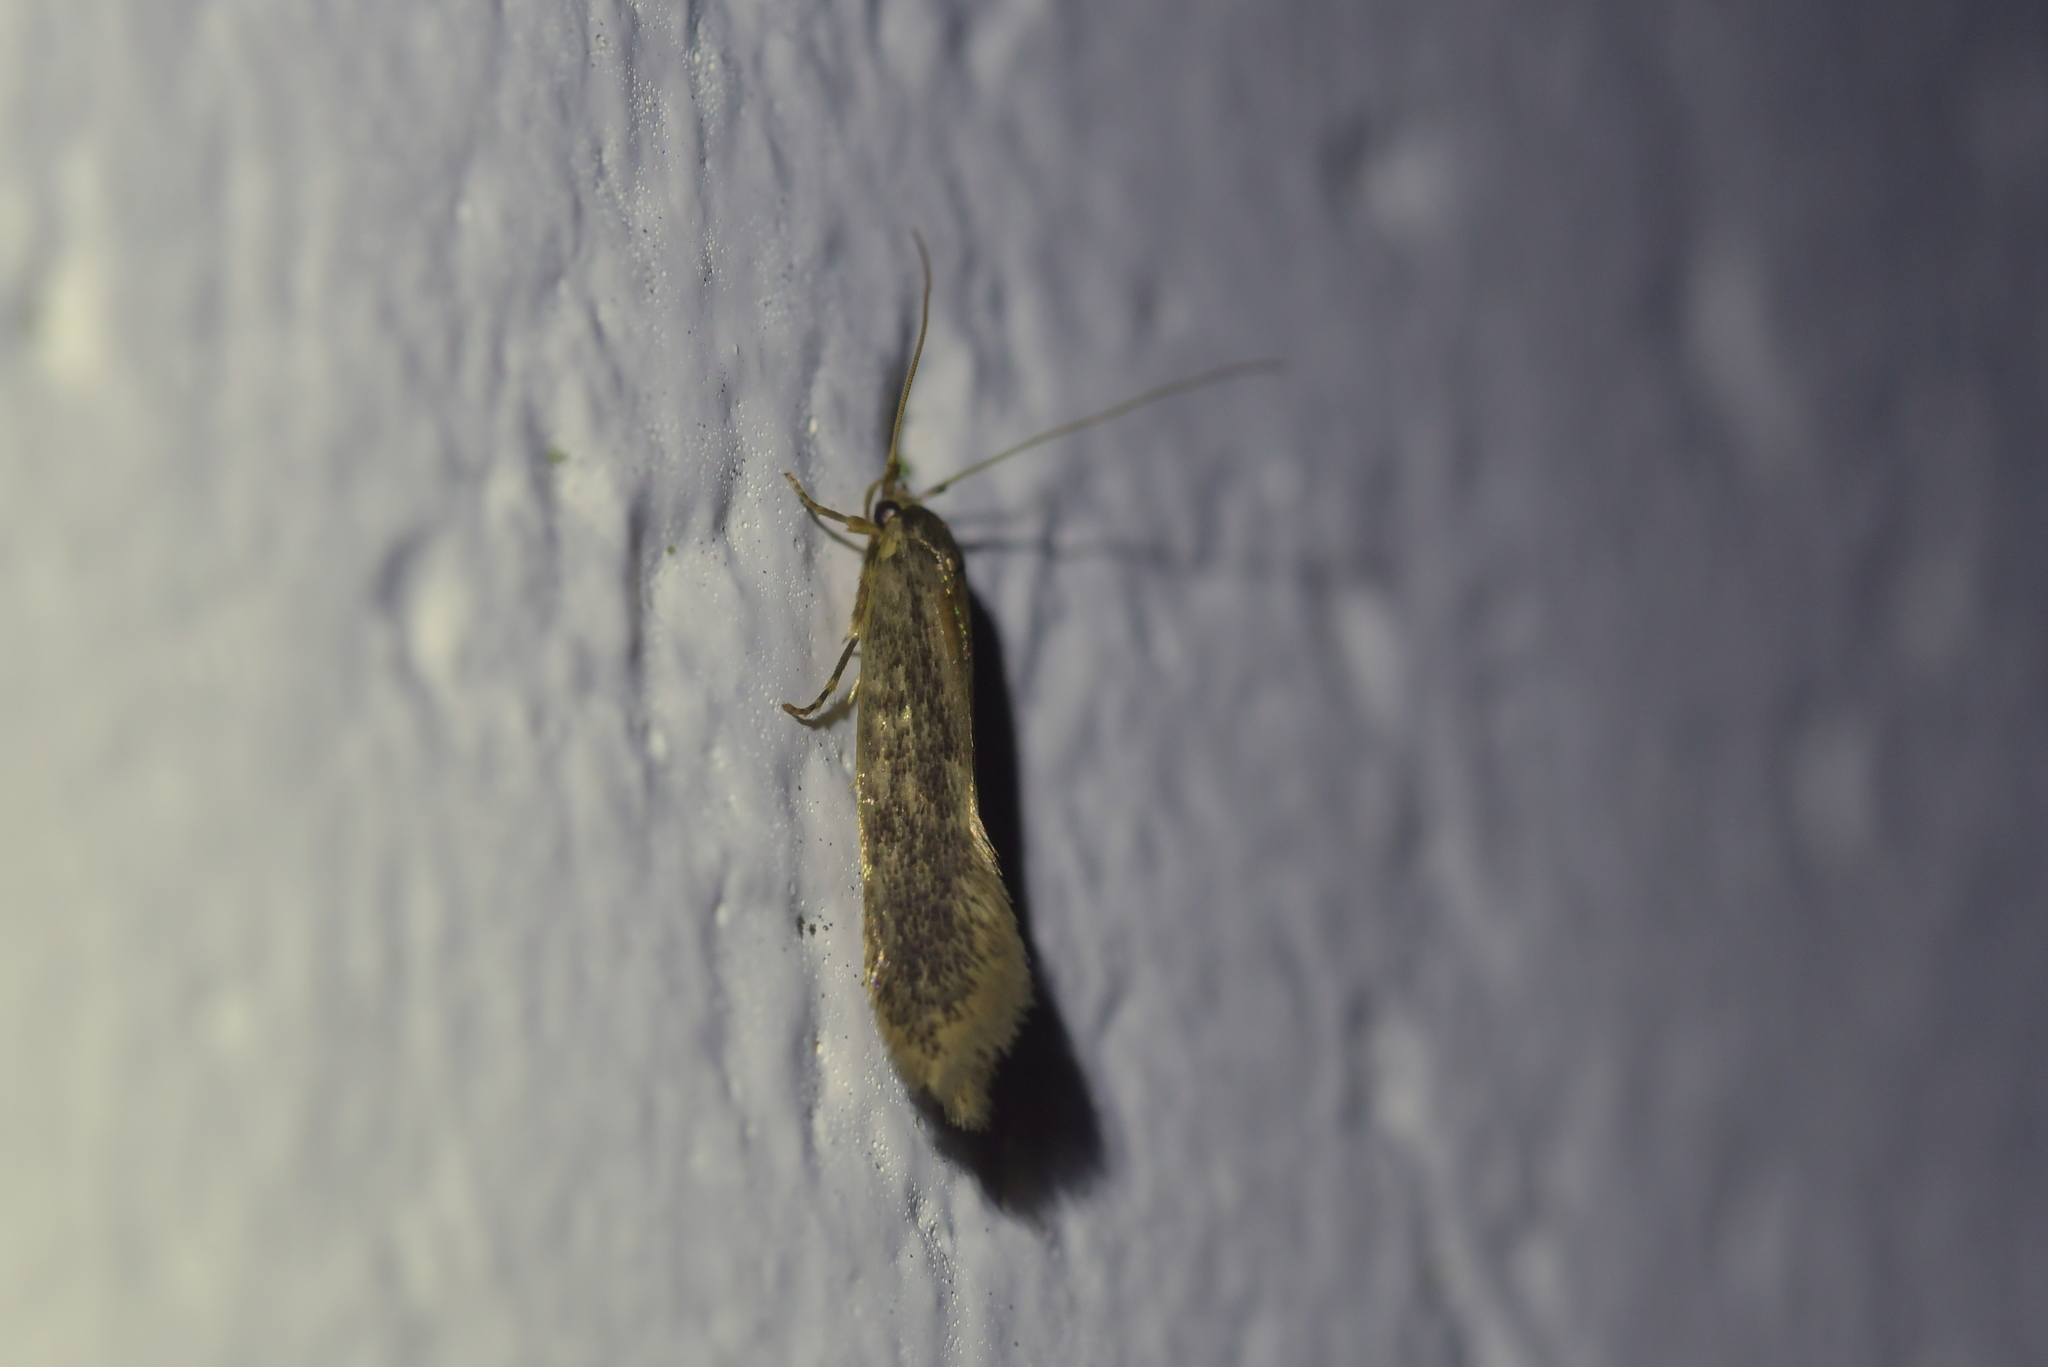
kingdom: Animalia
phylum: Arthropoda
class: Insecta
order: Lepidoptera
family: Tineidae
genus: Opogona
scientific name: Opogona omoscopa
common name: Moth
